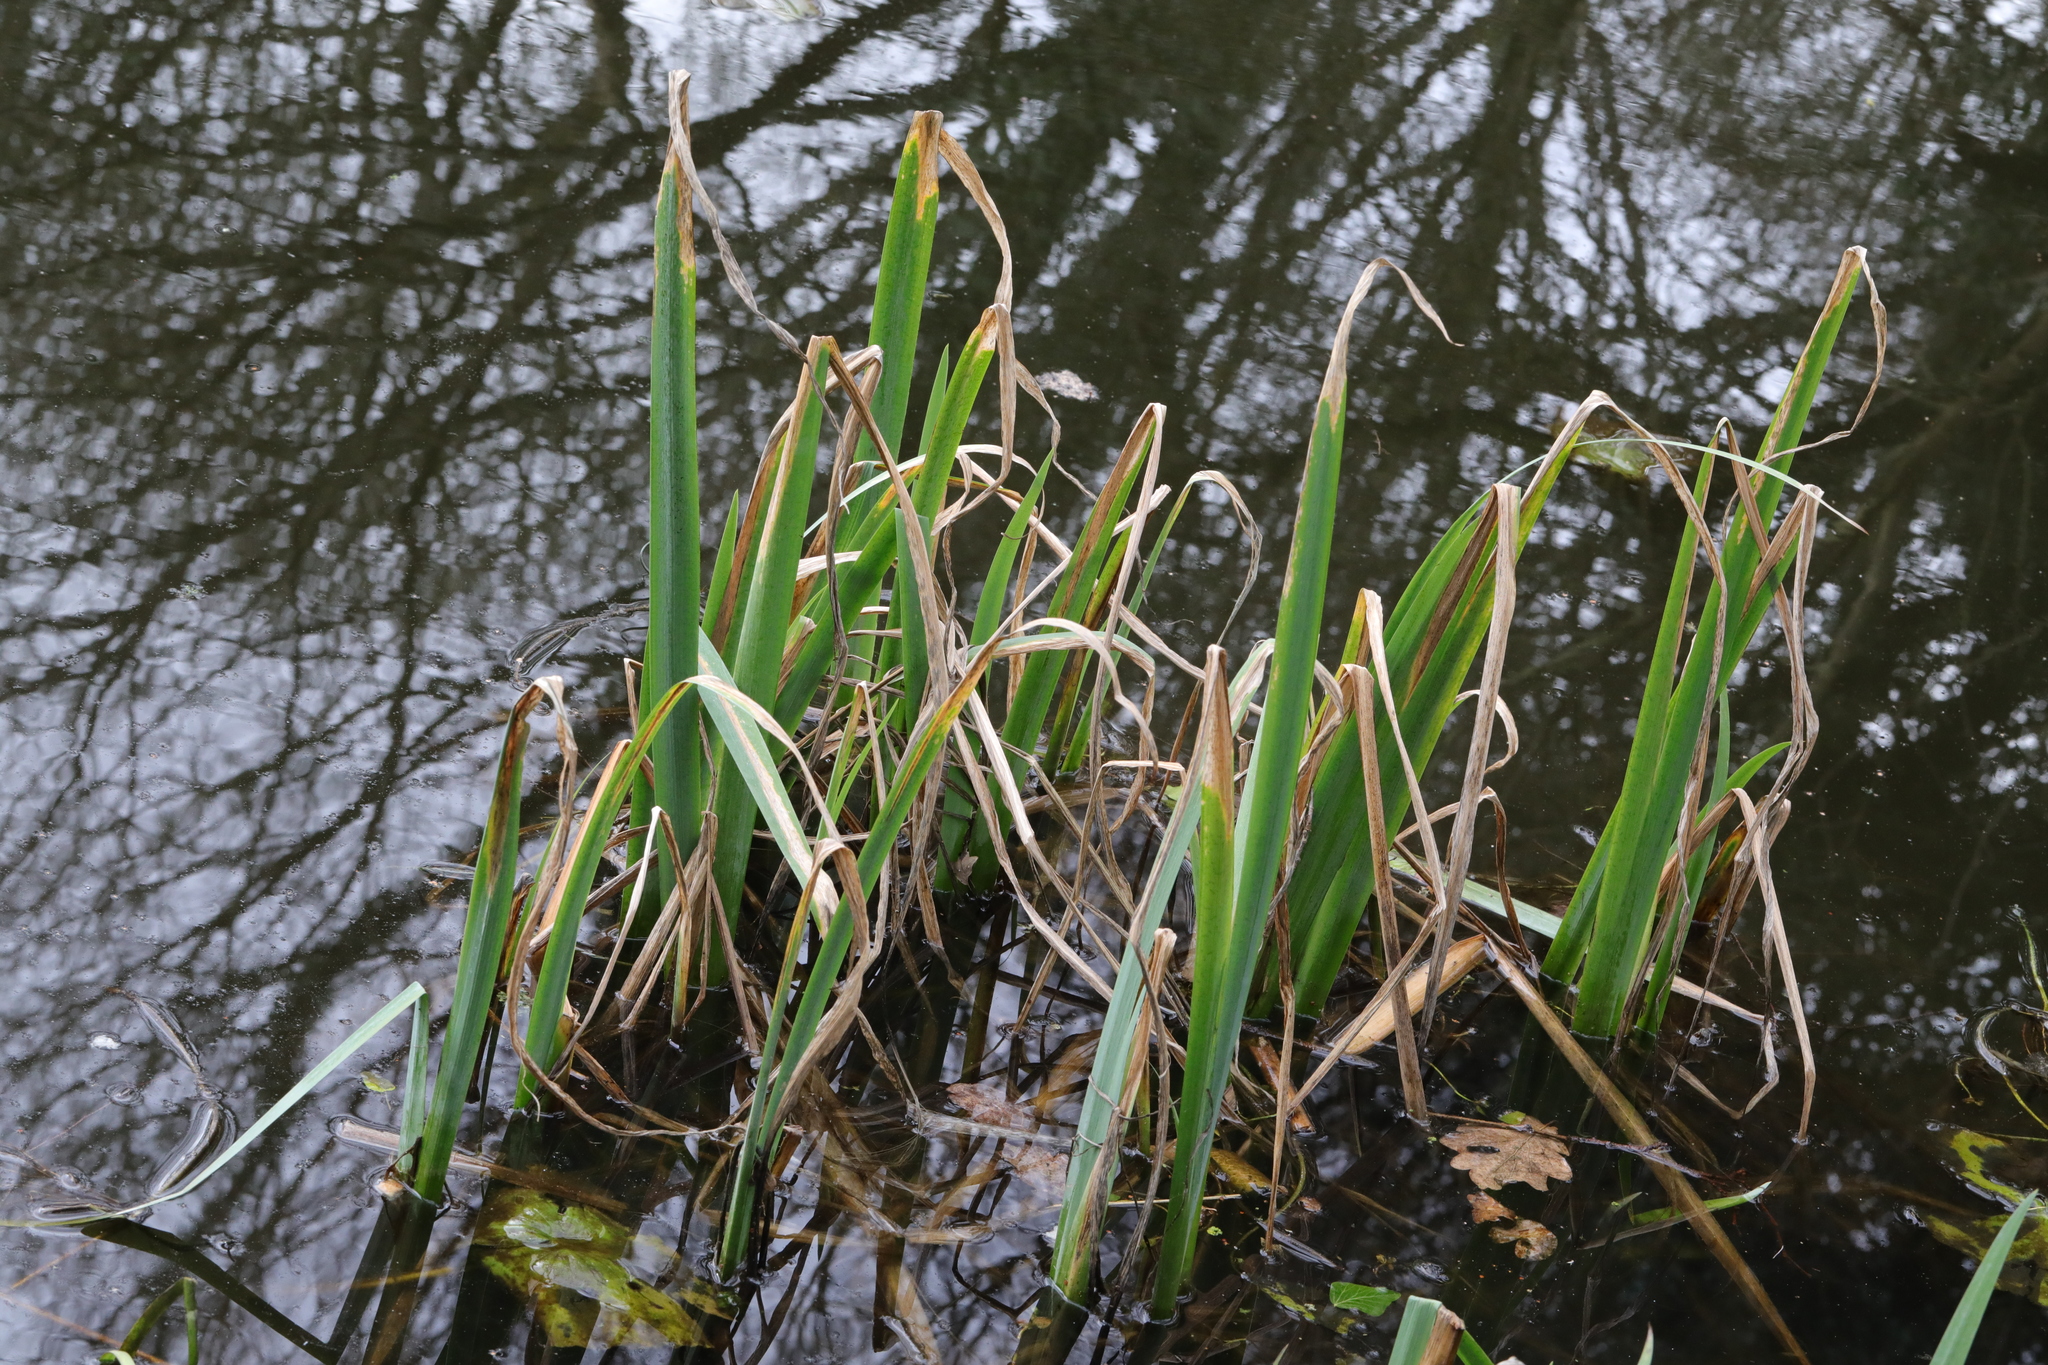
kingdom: Plantae
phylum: Tracheophyta
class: Liliopsida
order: Asparagales
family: Iridaceae
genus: Iris
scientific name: Iris pseudacorus
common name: Yellow flag
